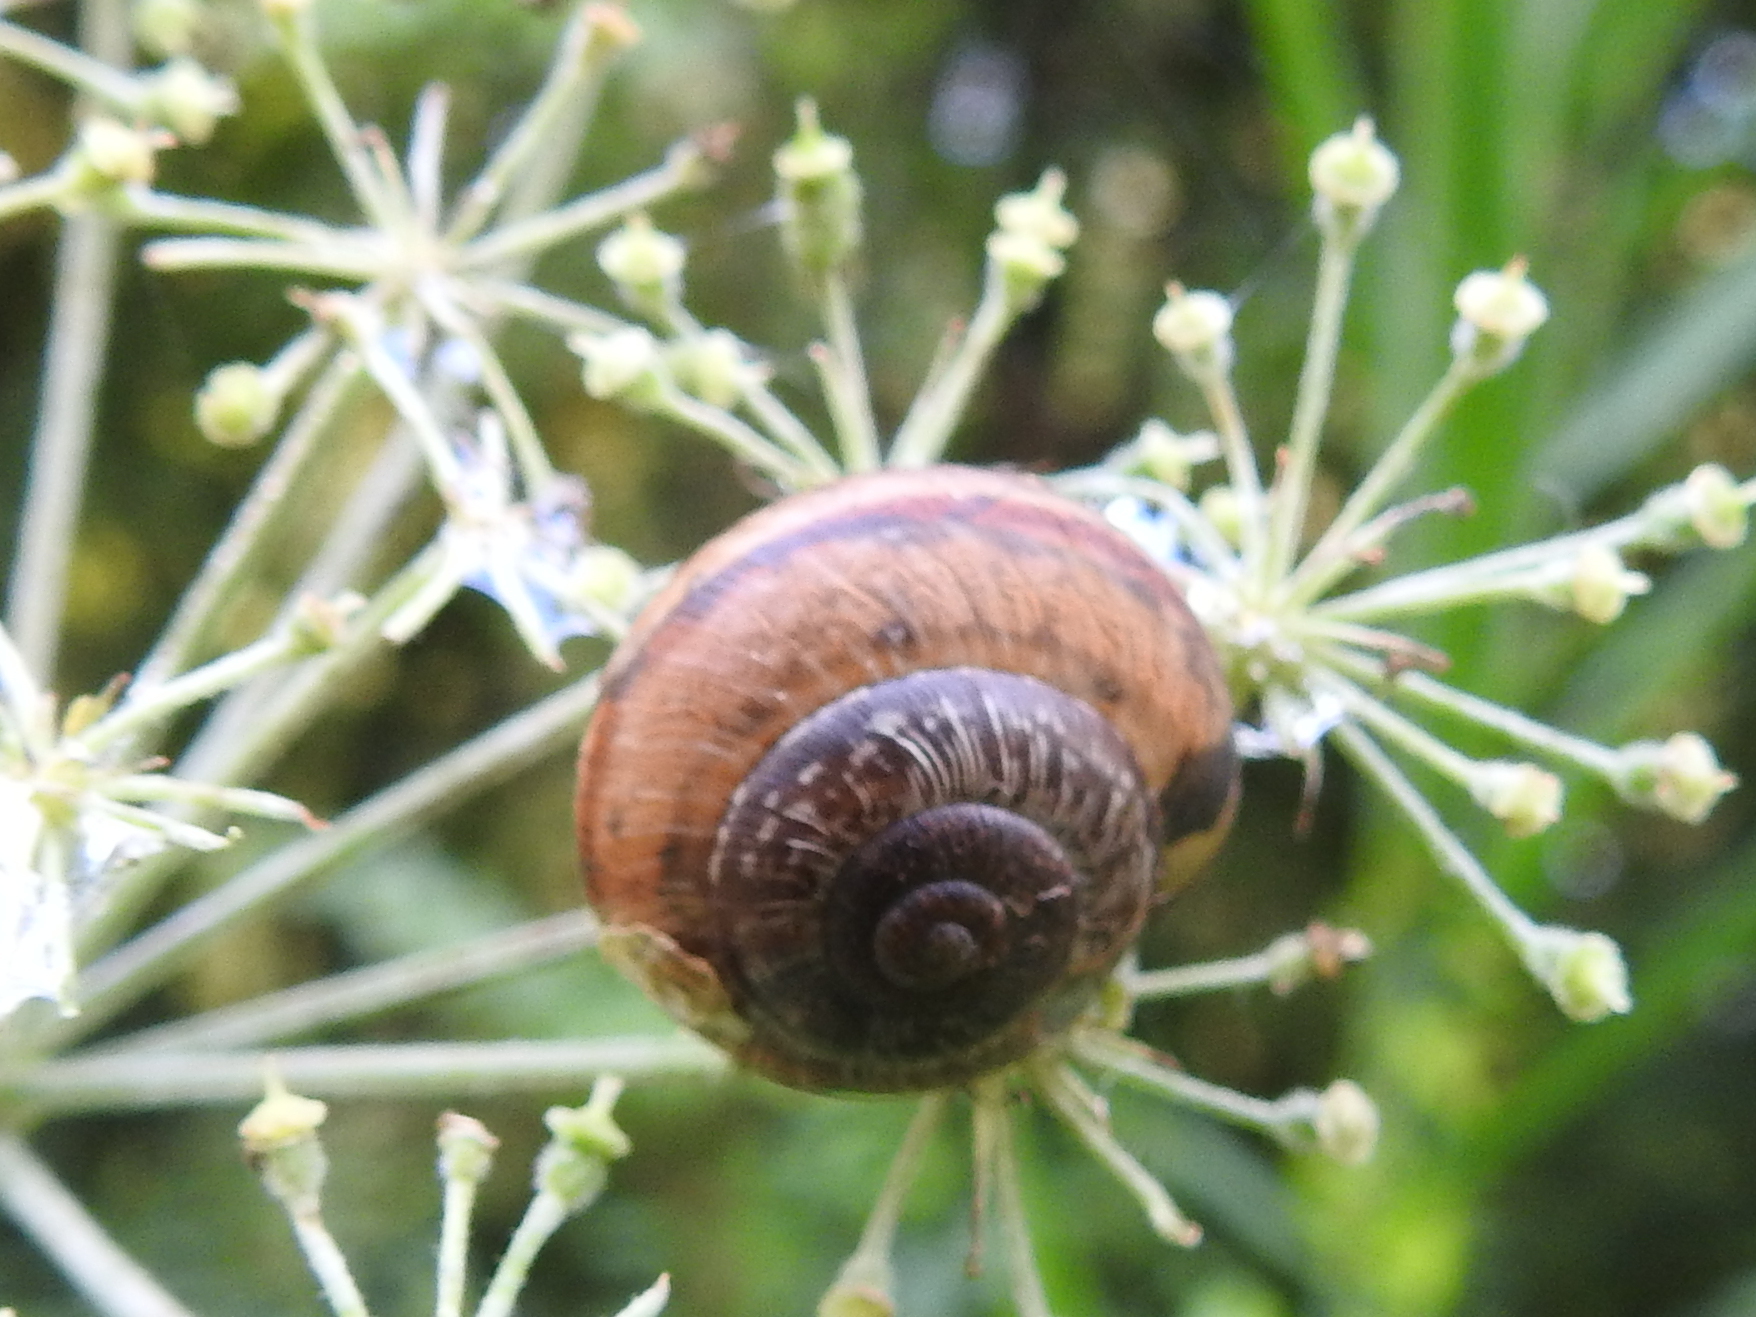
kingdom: Animalia
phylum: Mollusca
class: Gastropoda
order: Stylommatophora
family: Helicidae
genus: Arianta
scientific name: Arianta arbustorum
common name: Copse snail
